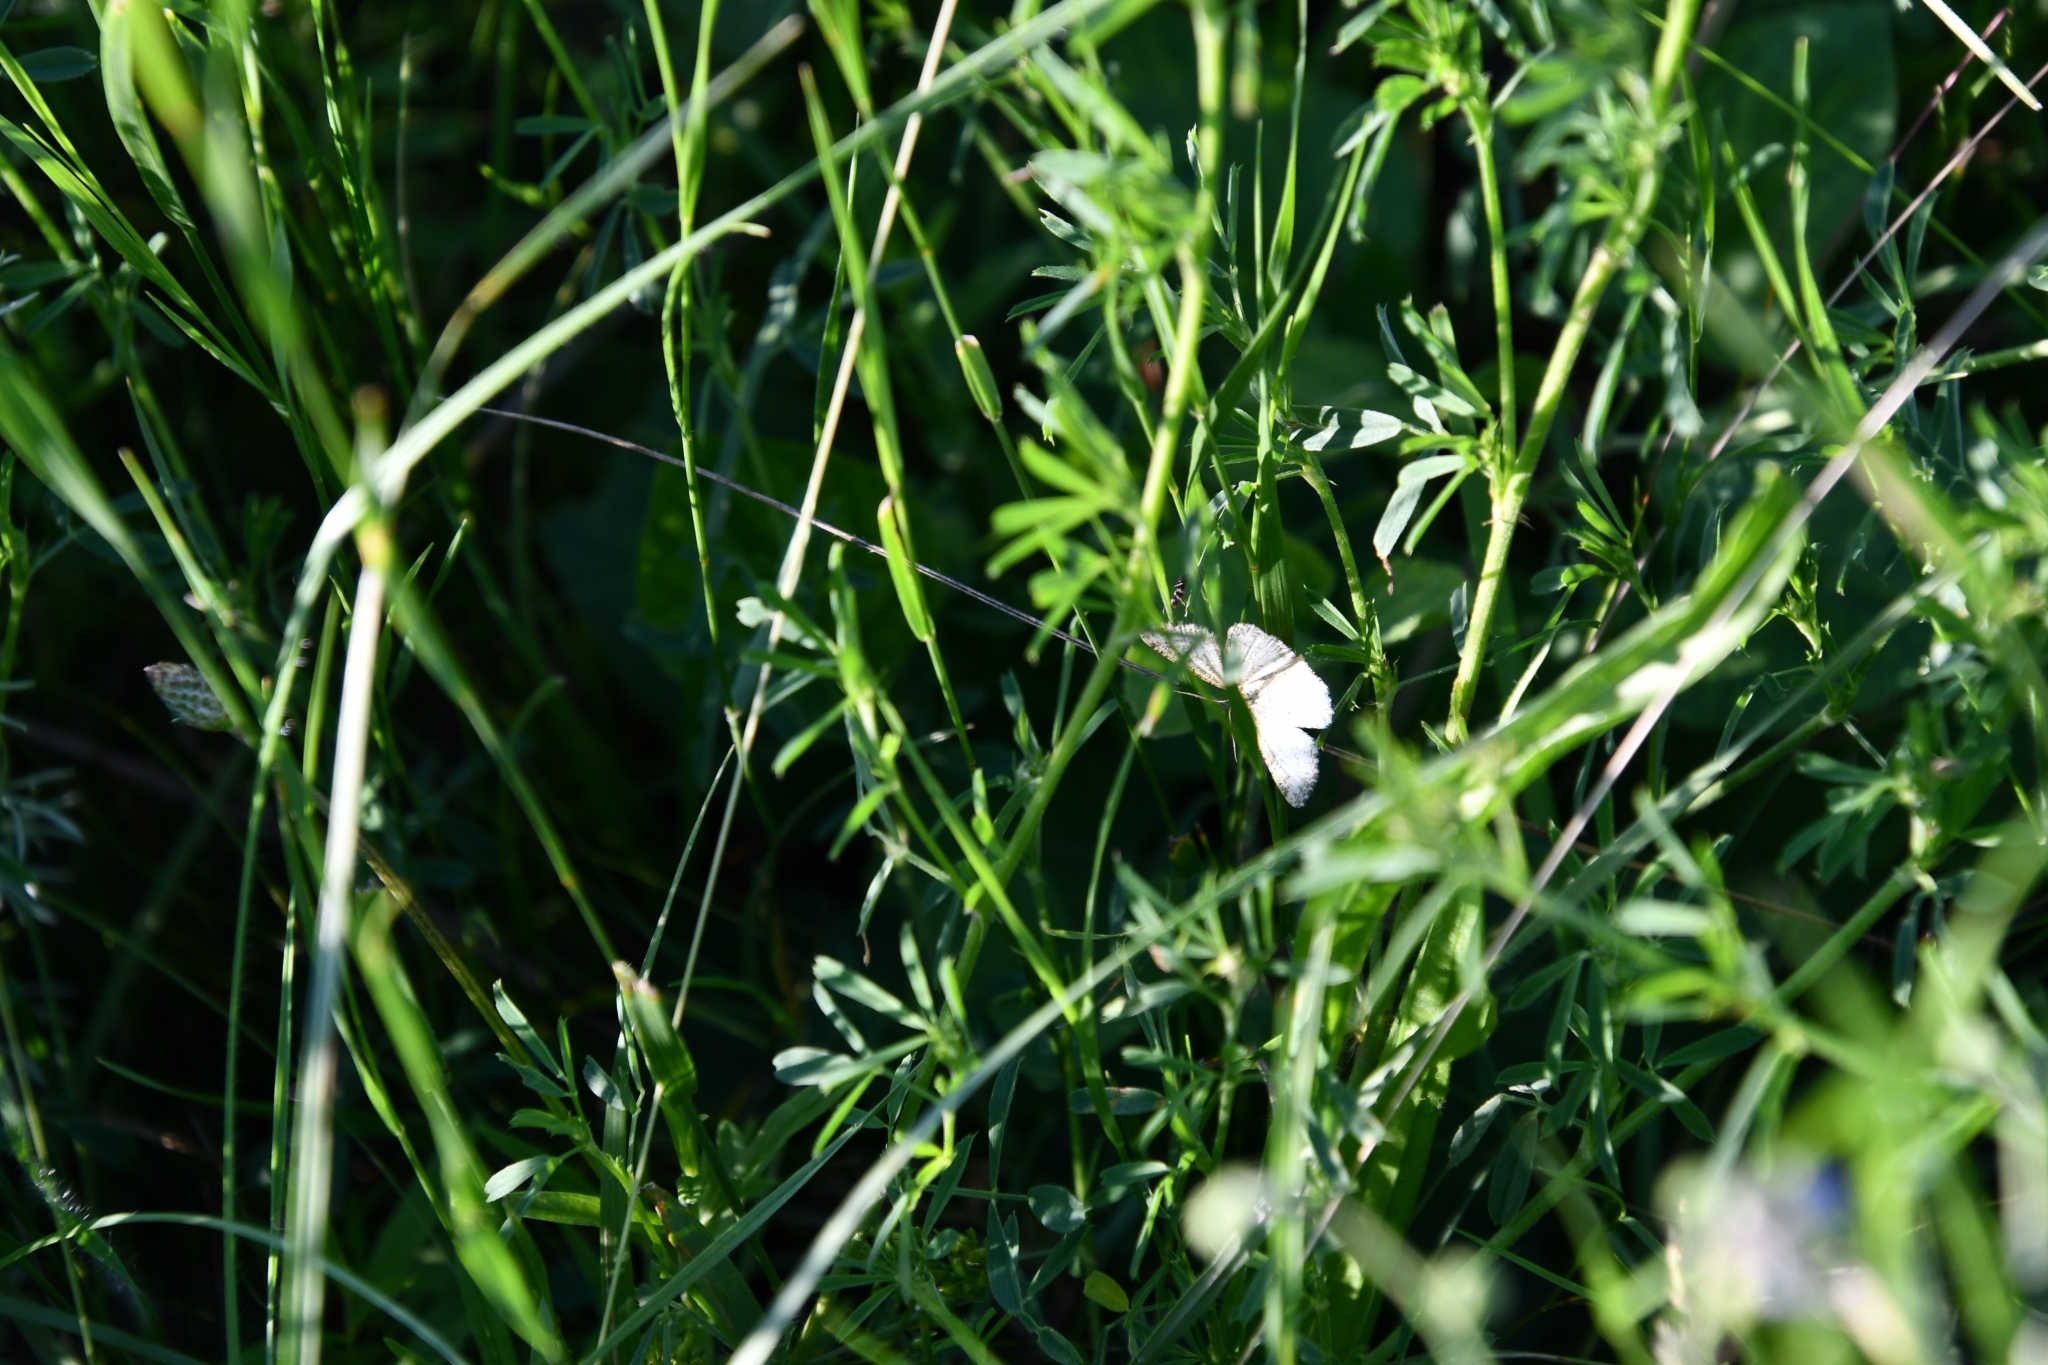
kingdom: Animalia
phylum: Arthropoda
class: Insecta
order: Lepidoptera
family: Geometridae
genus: Angerona
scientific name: Angerona prunaria
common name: Orange moth
